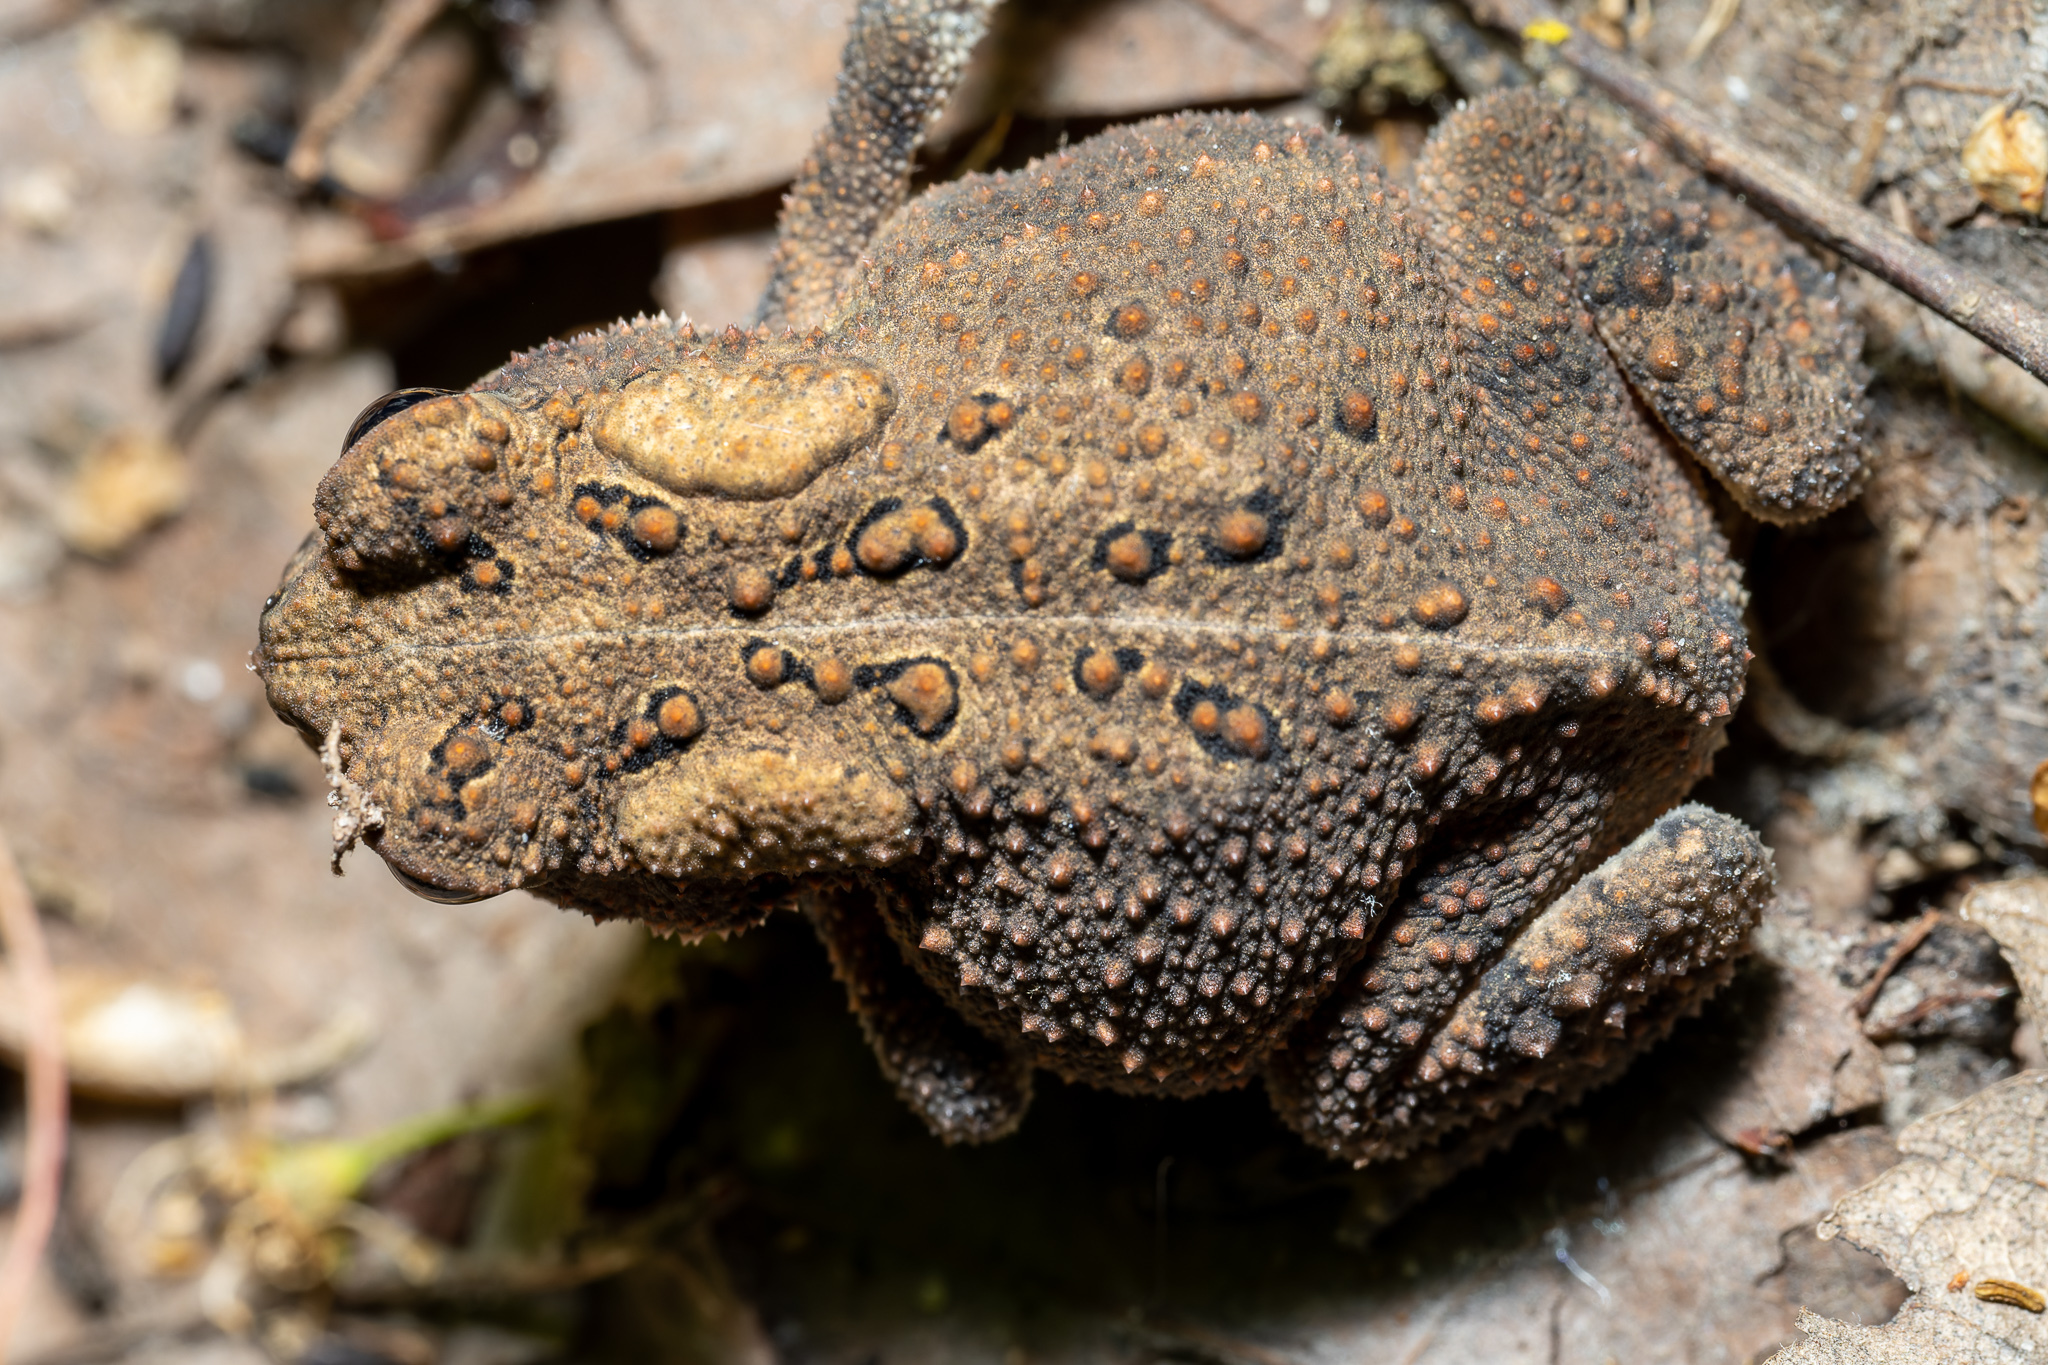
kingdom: Animalia
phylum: Chordata
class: Amphibia
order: Anura
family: Bufonidae
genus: Anaxyrus
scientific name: Anaxyrus americanus
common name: American toad
